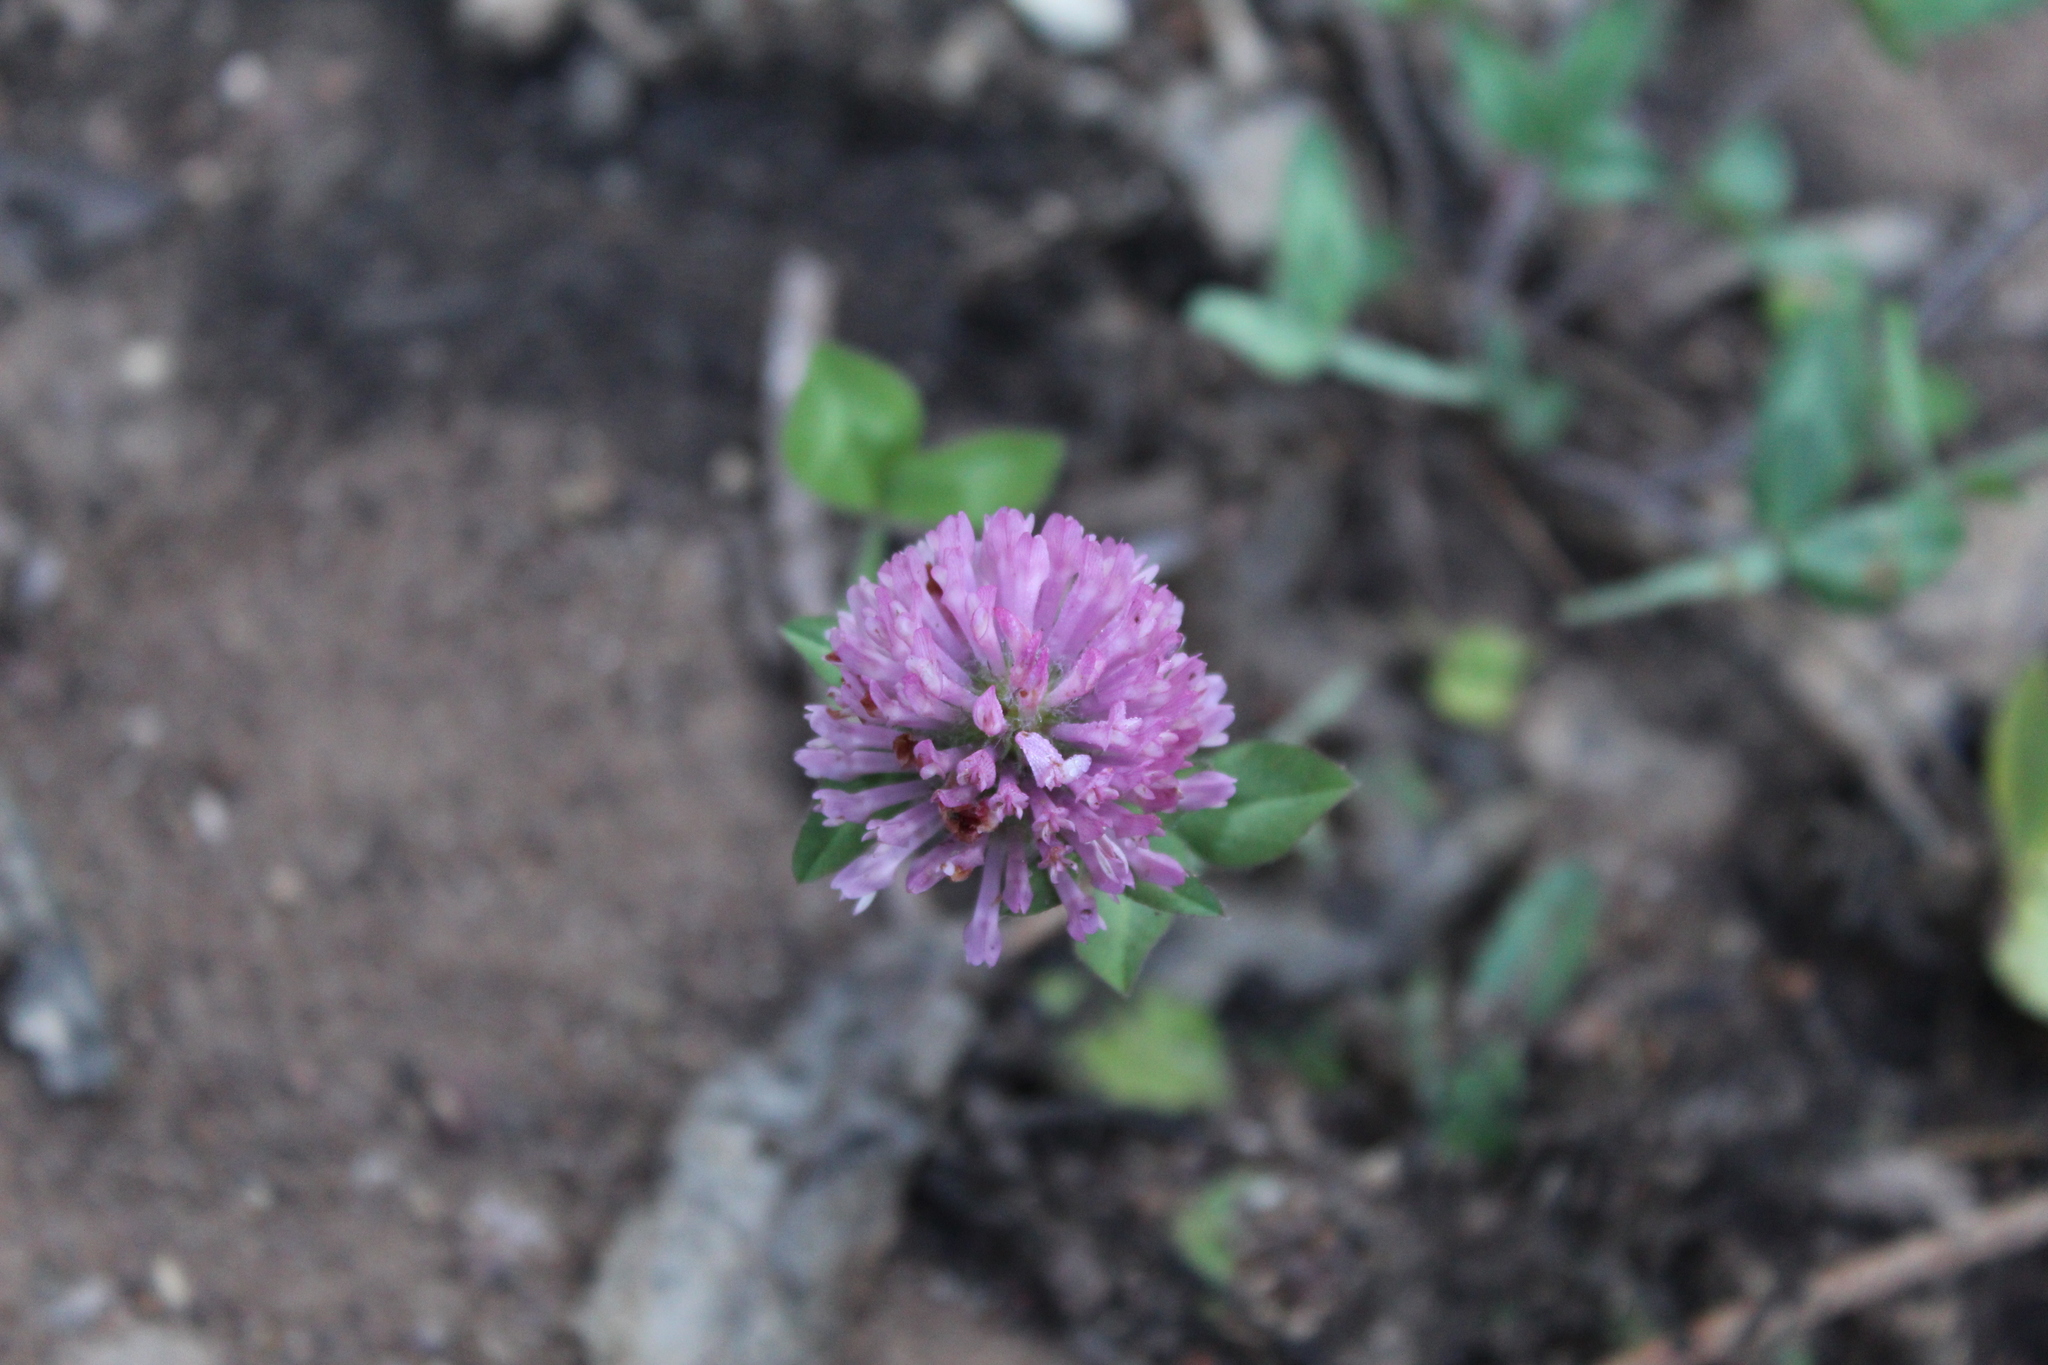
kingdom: Plantae
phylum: Tracheophyta
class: Magnoliopsida
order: Fabales
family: Fabaceae
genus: Trifolium
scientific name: Trifolium pratense
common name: Red clover
